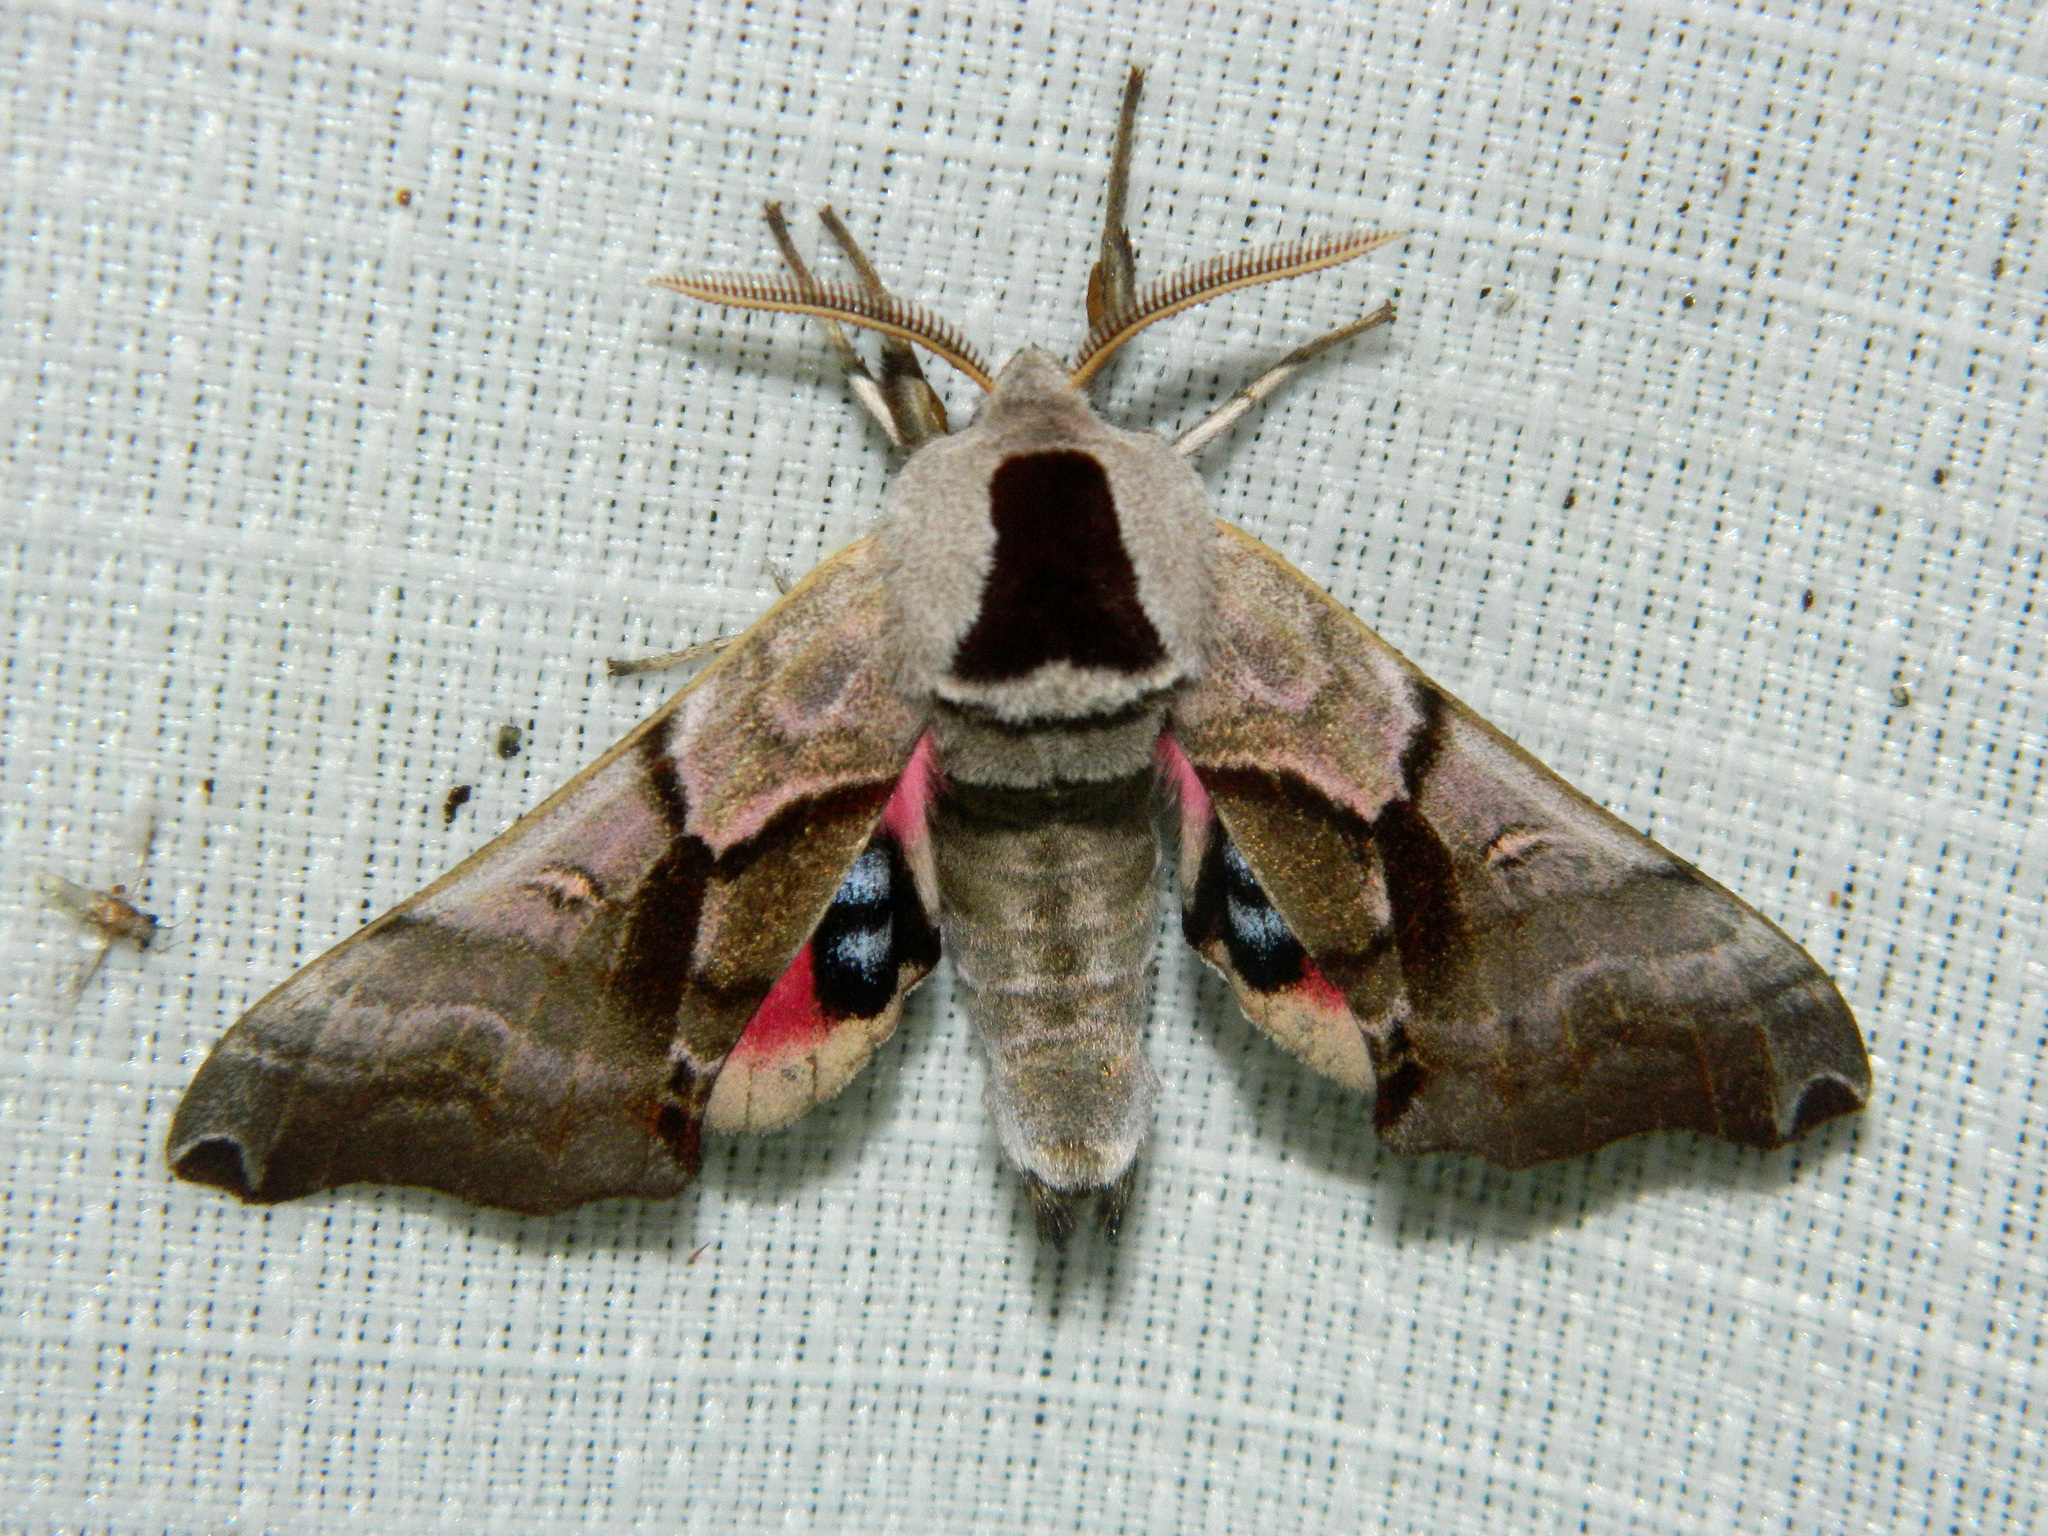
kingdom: Animalia
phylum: Arthropoda
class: Insecta
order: Lepidoptera
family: Sphingidae
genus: Smerinthus
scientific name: Smerinthus jamaicensis
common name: Twin spotted sphinx
